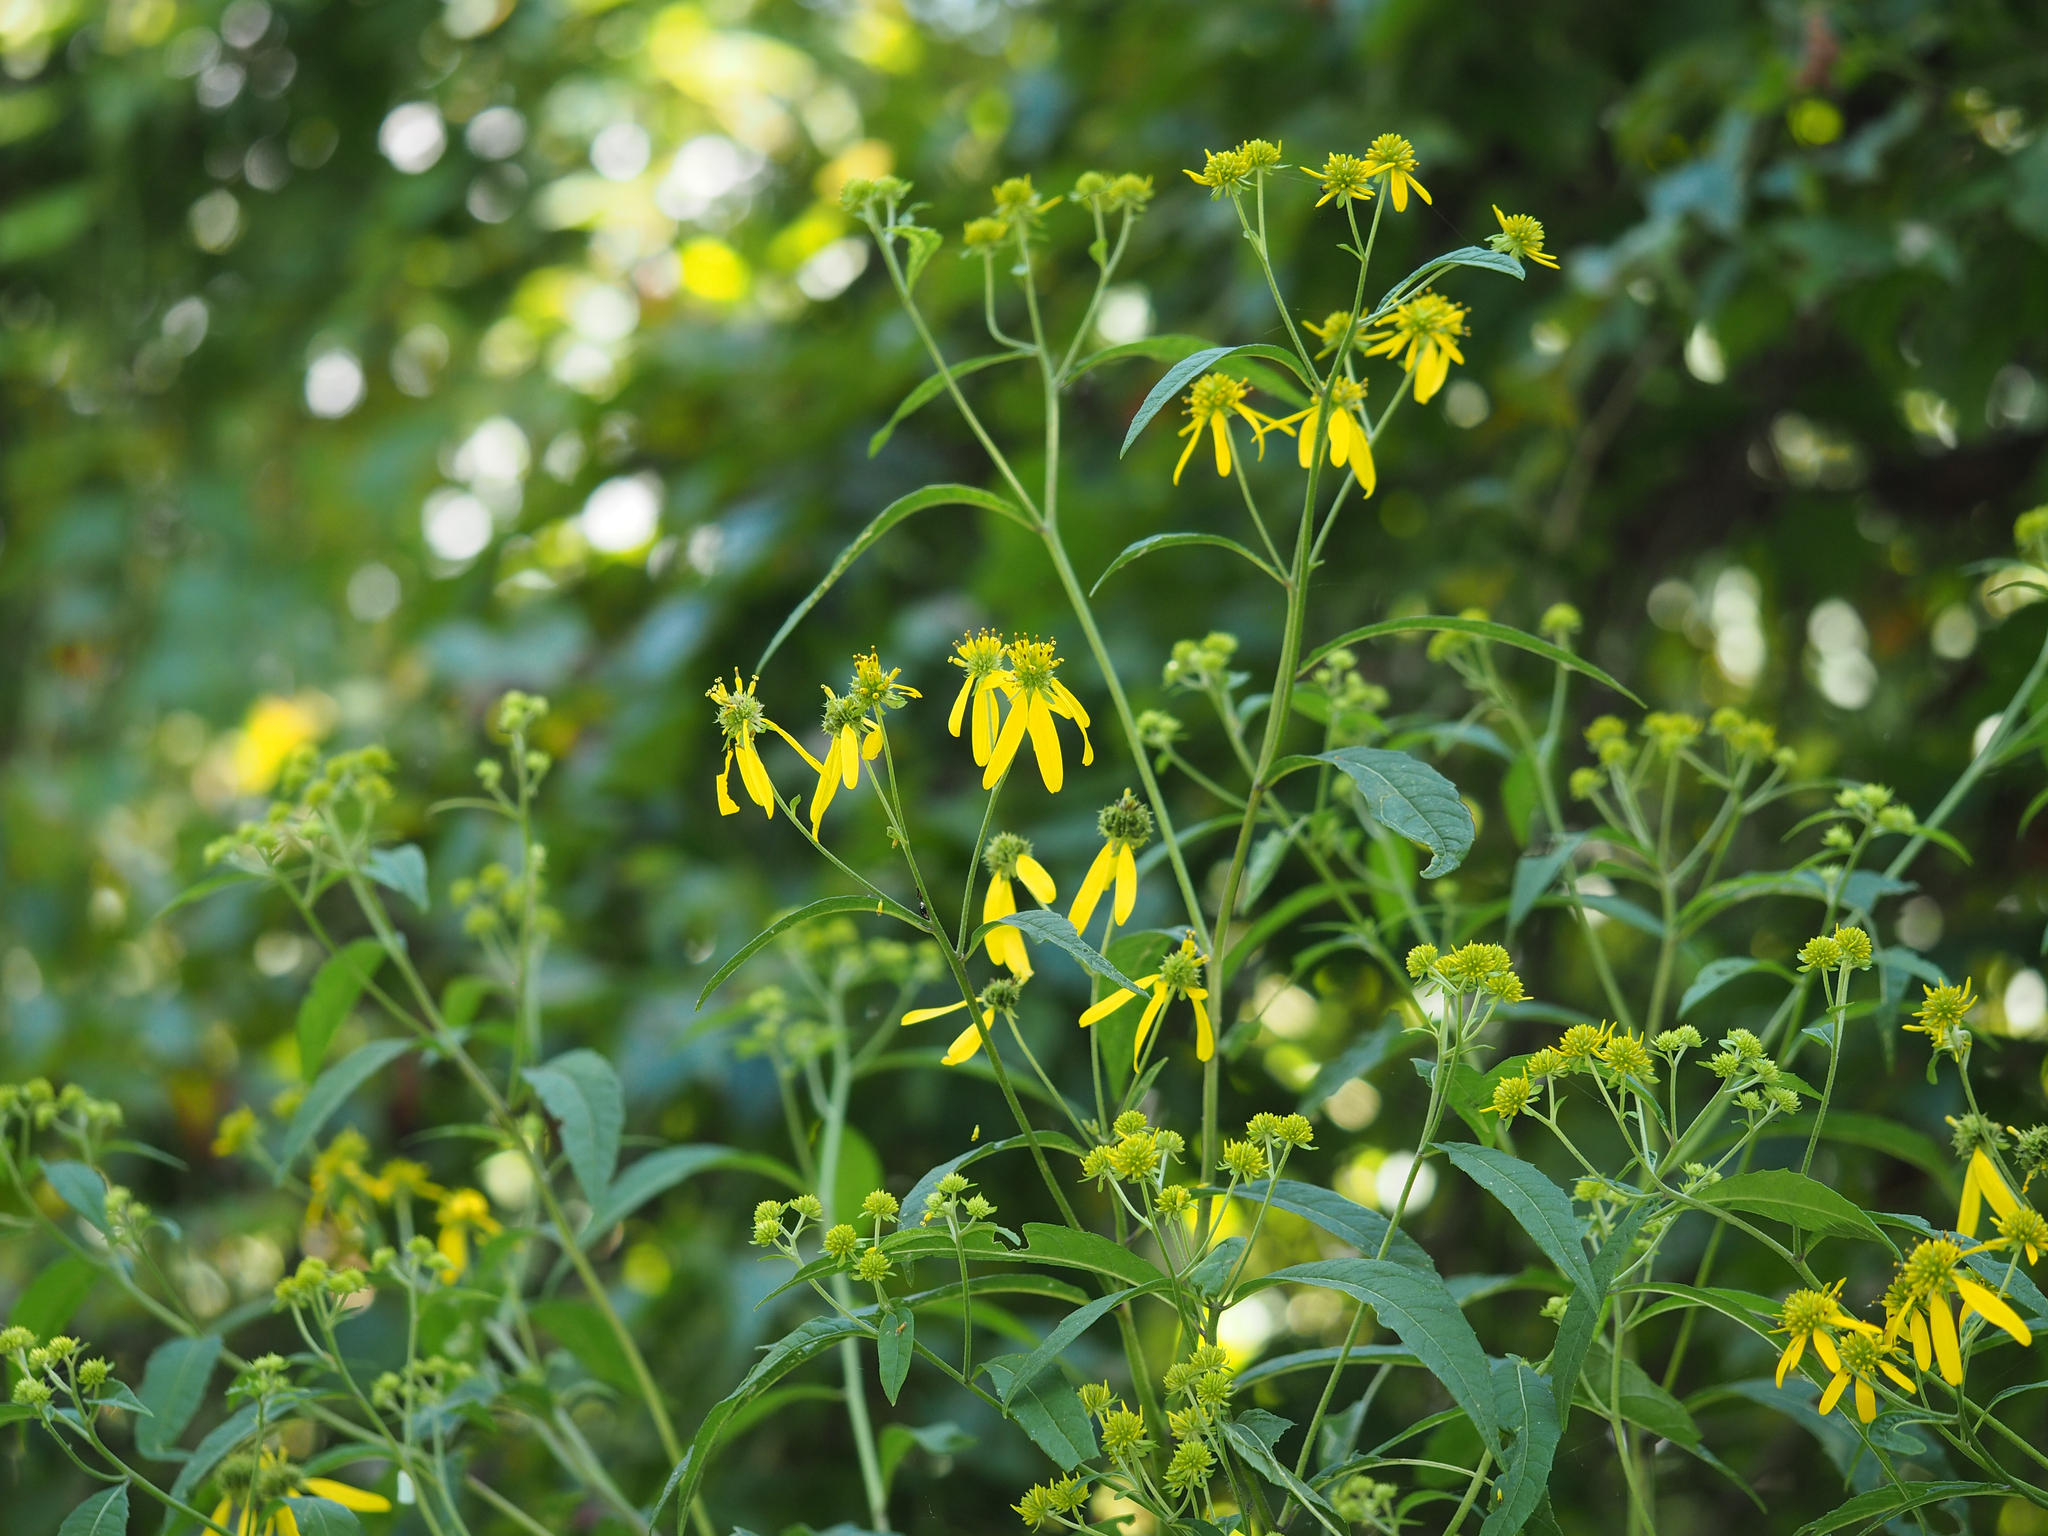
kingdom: Plantae
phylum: Tracheophyta
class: Magnoliopsida
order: Asterales
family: Asteraceae
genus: Verbesina
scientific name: Verbesina alternifolia
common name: Wingstem
